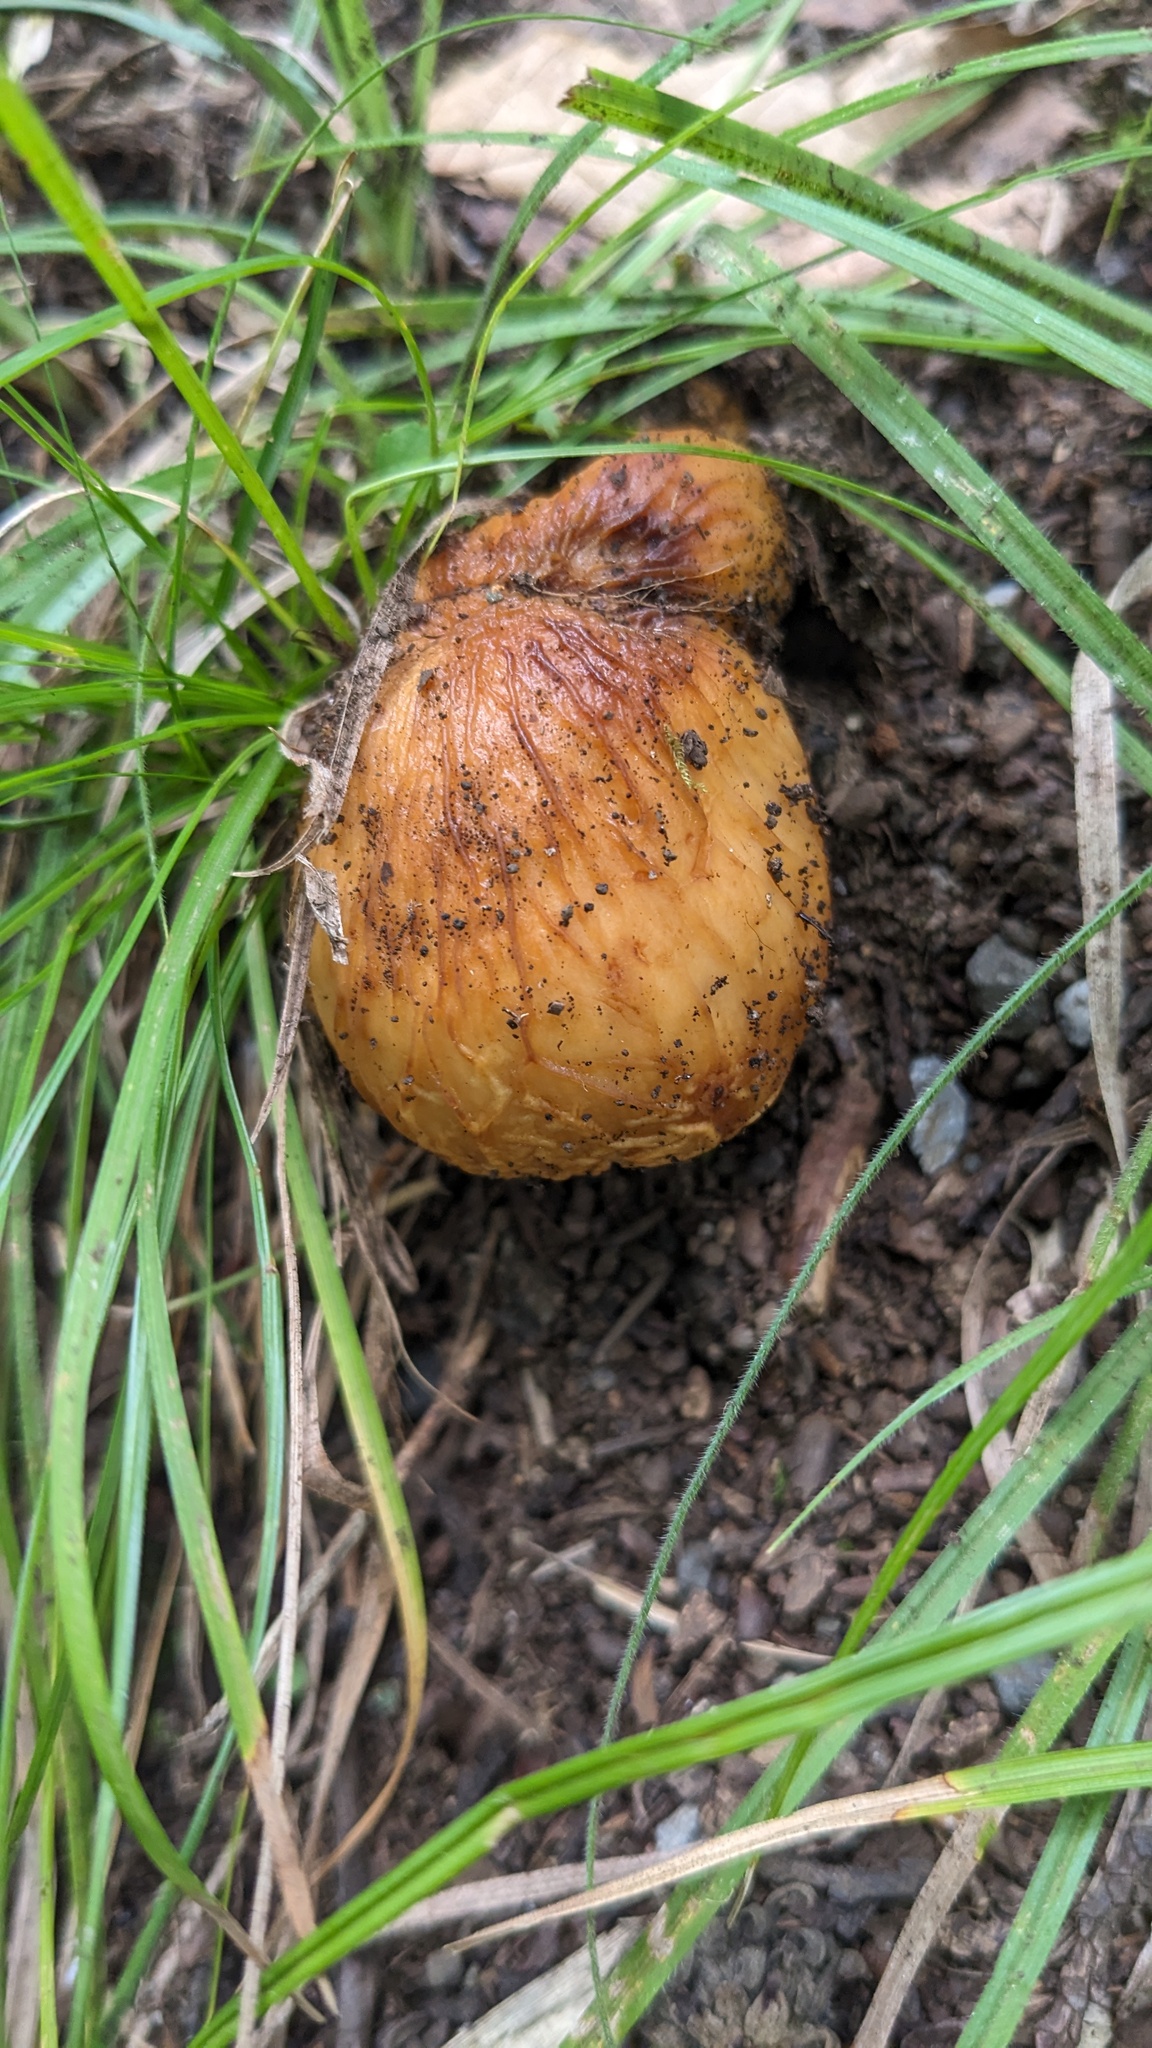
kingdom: Fungi
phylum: Basidiomycota
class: Agaricomycetes
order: Russulales
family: Russulaceae
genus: Russula
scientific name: Russula senecis
